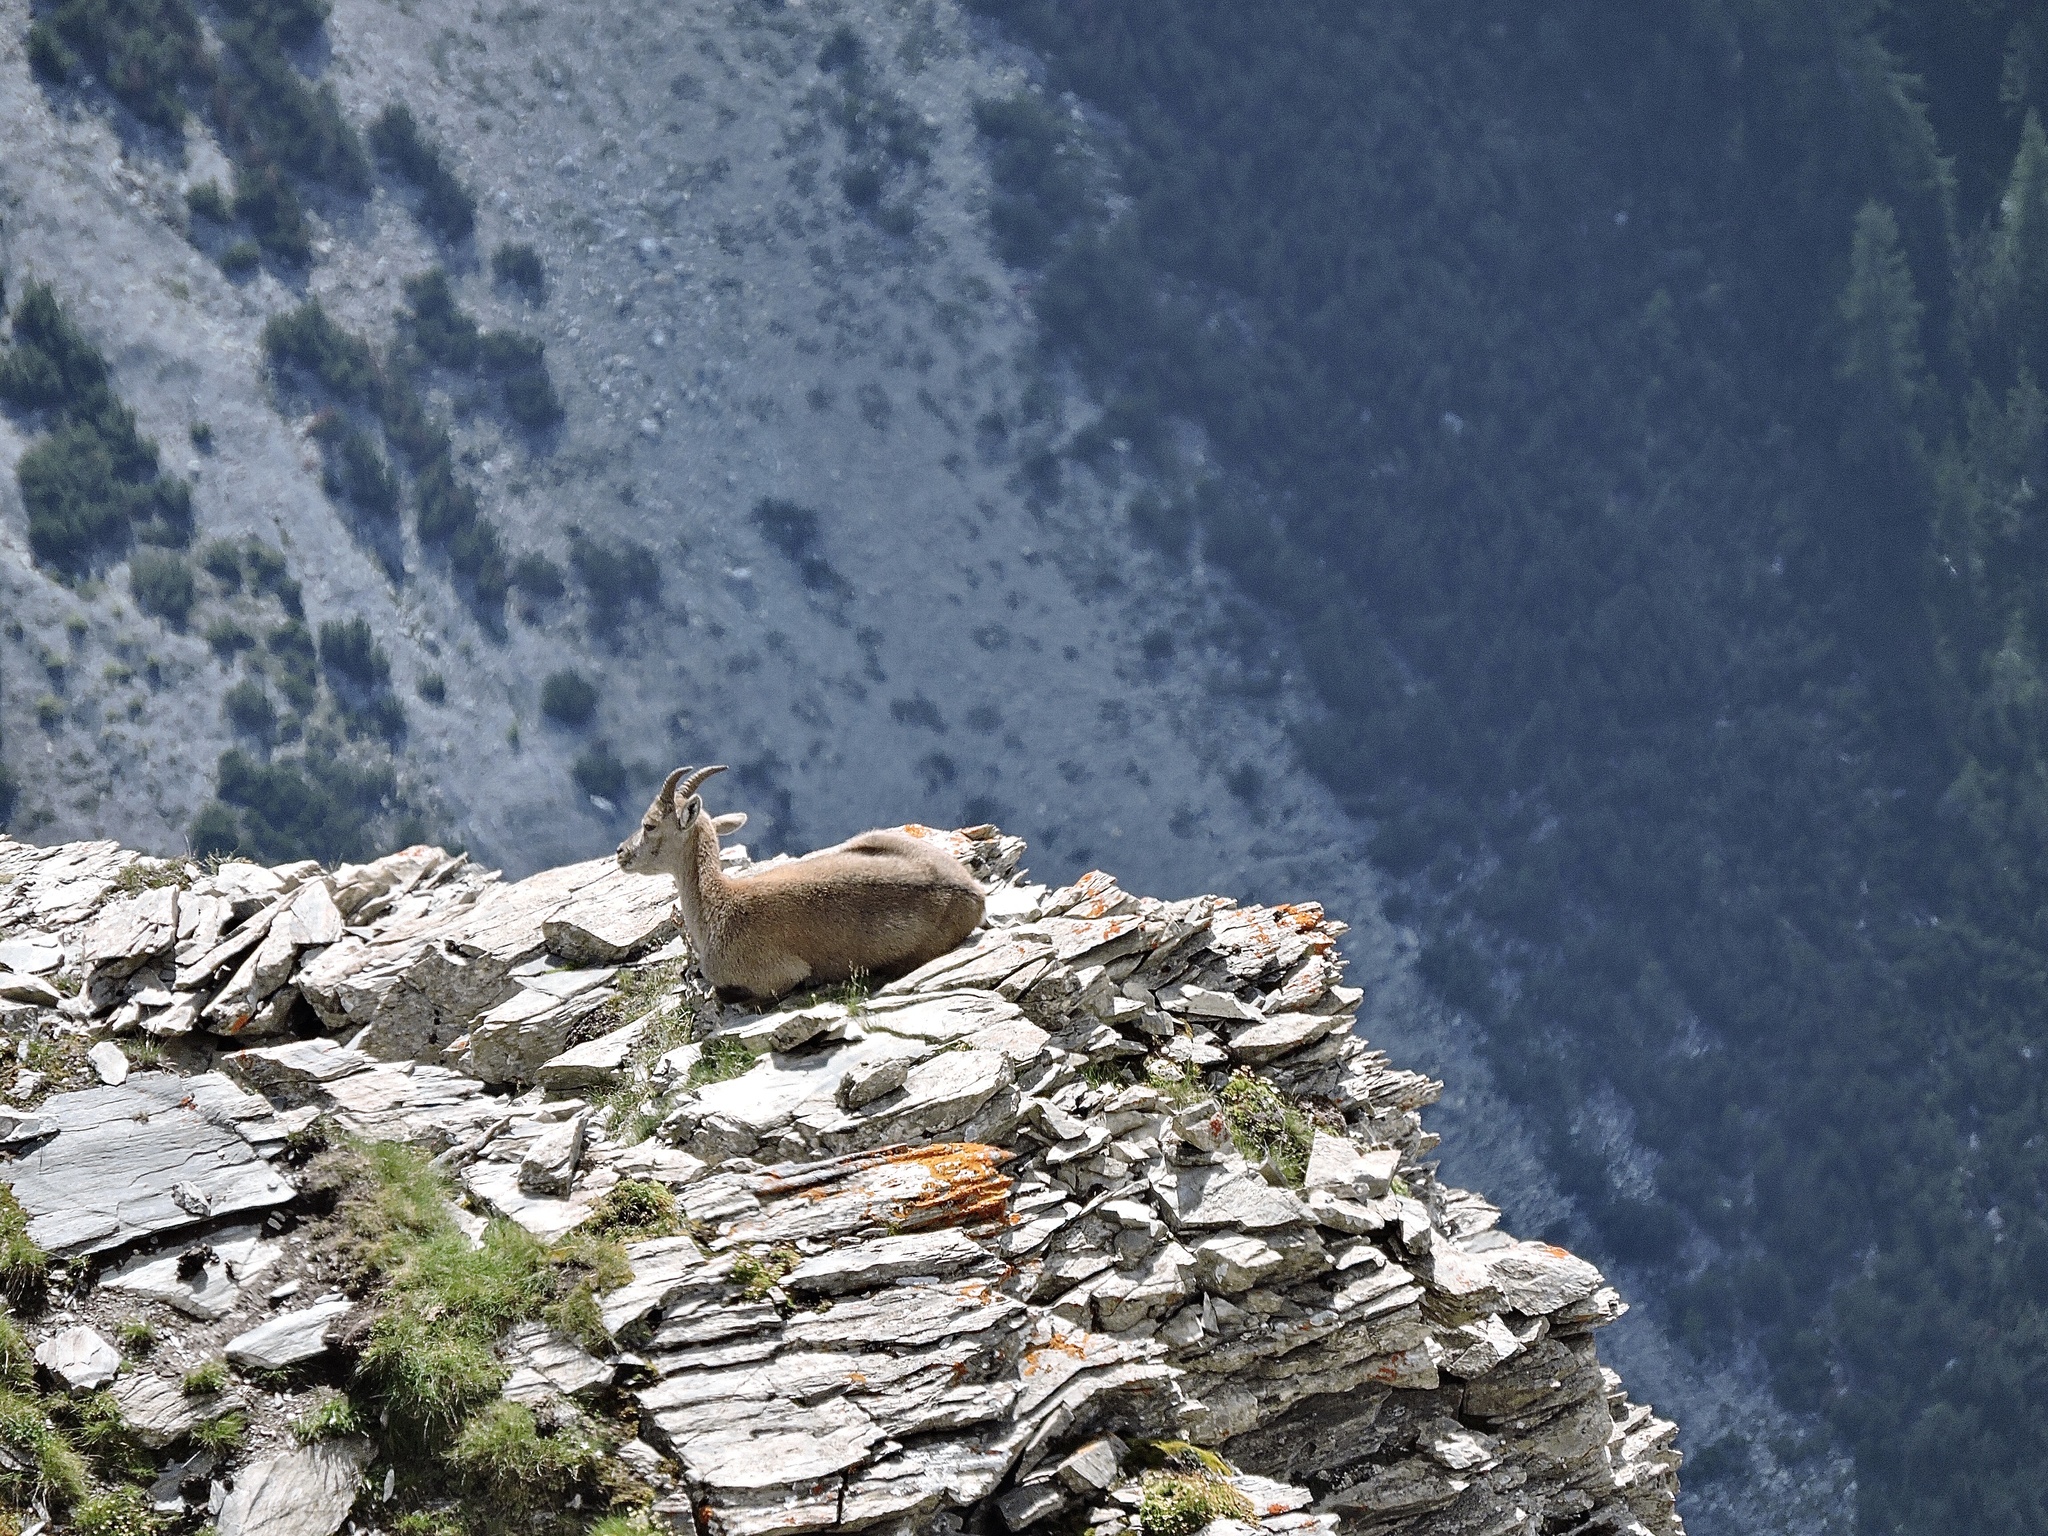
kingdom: Animalia
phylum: Chordata
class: Mammalia
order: Artiodactyla
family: Bovidae
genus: Capra
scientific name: Capra ibex
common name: Alpine ibex
